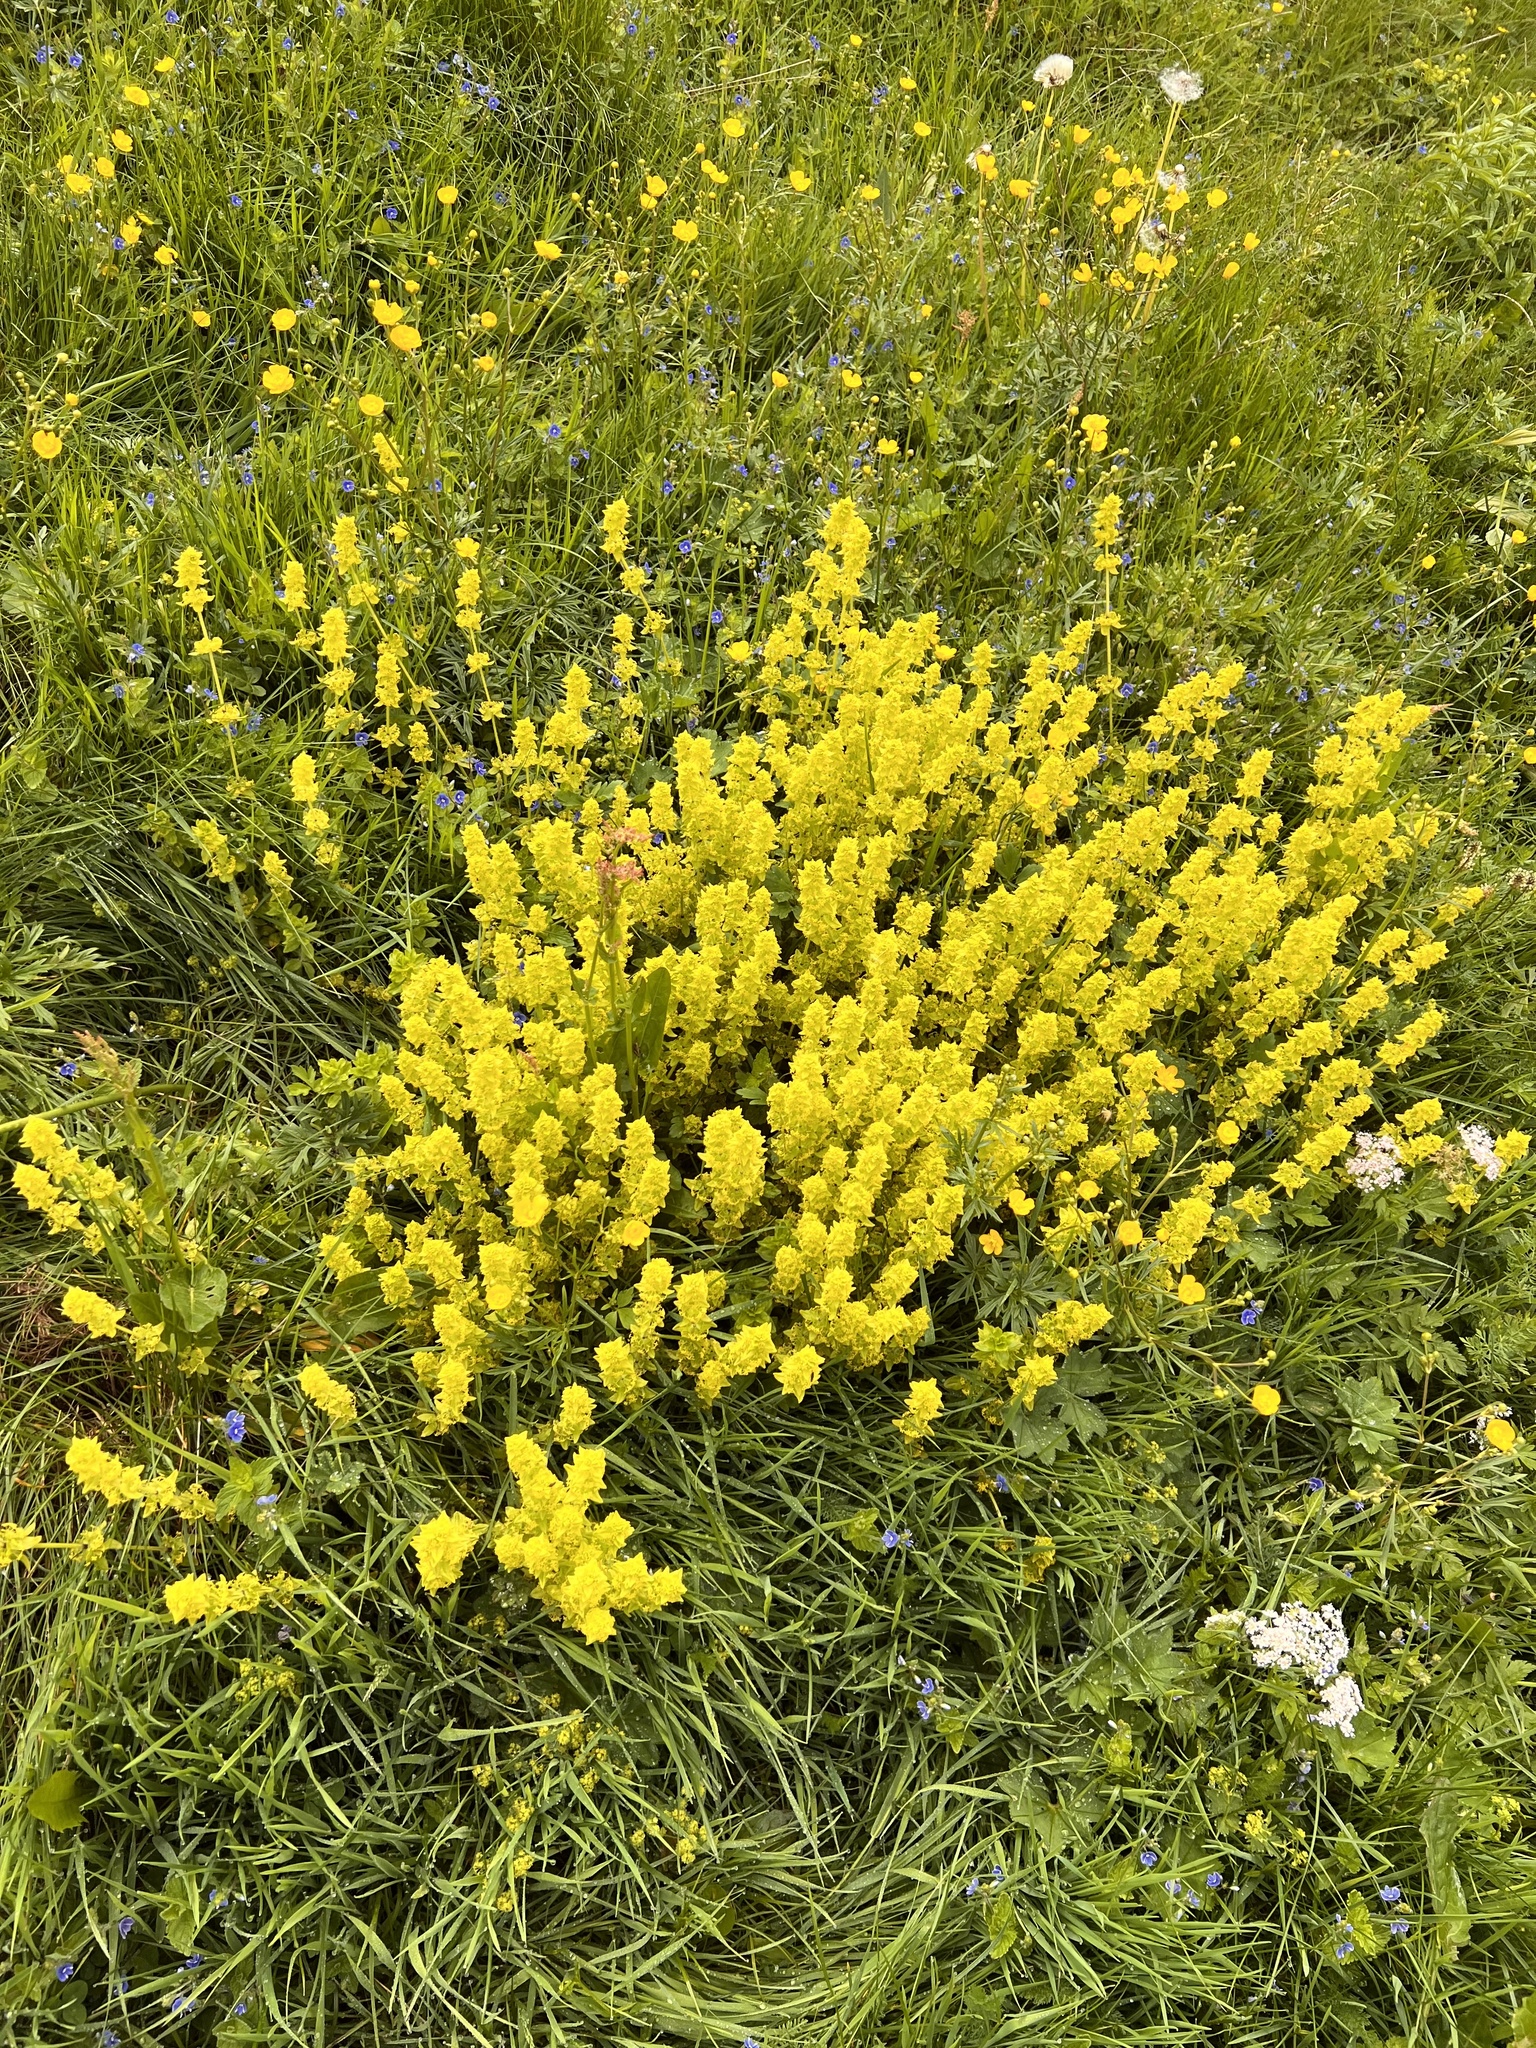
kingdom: Plantae
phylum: Tracheophyta
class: Magnoliopsida
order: Gentianales
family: Rubiaceae
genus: Cruciata
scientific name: Cruciata laevipes
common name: Crosswort
